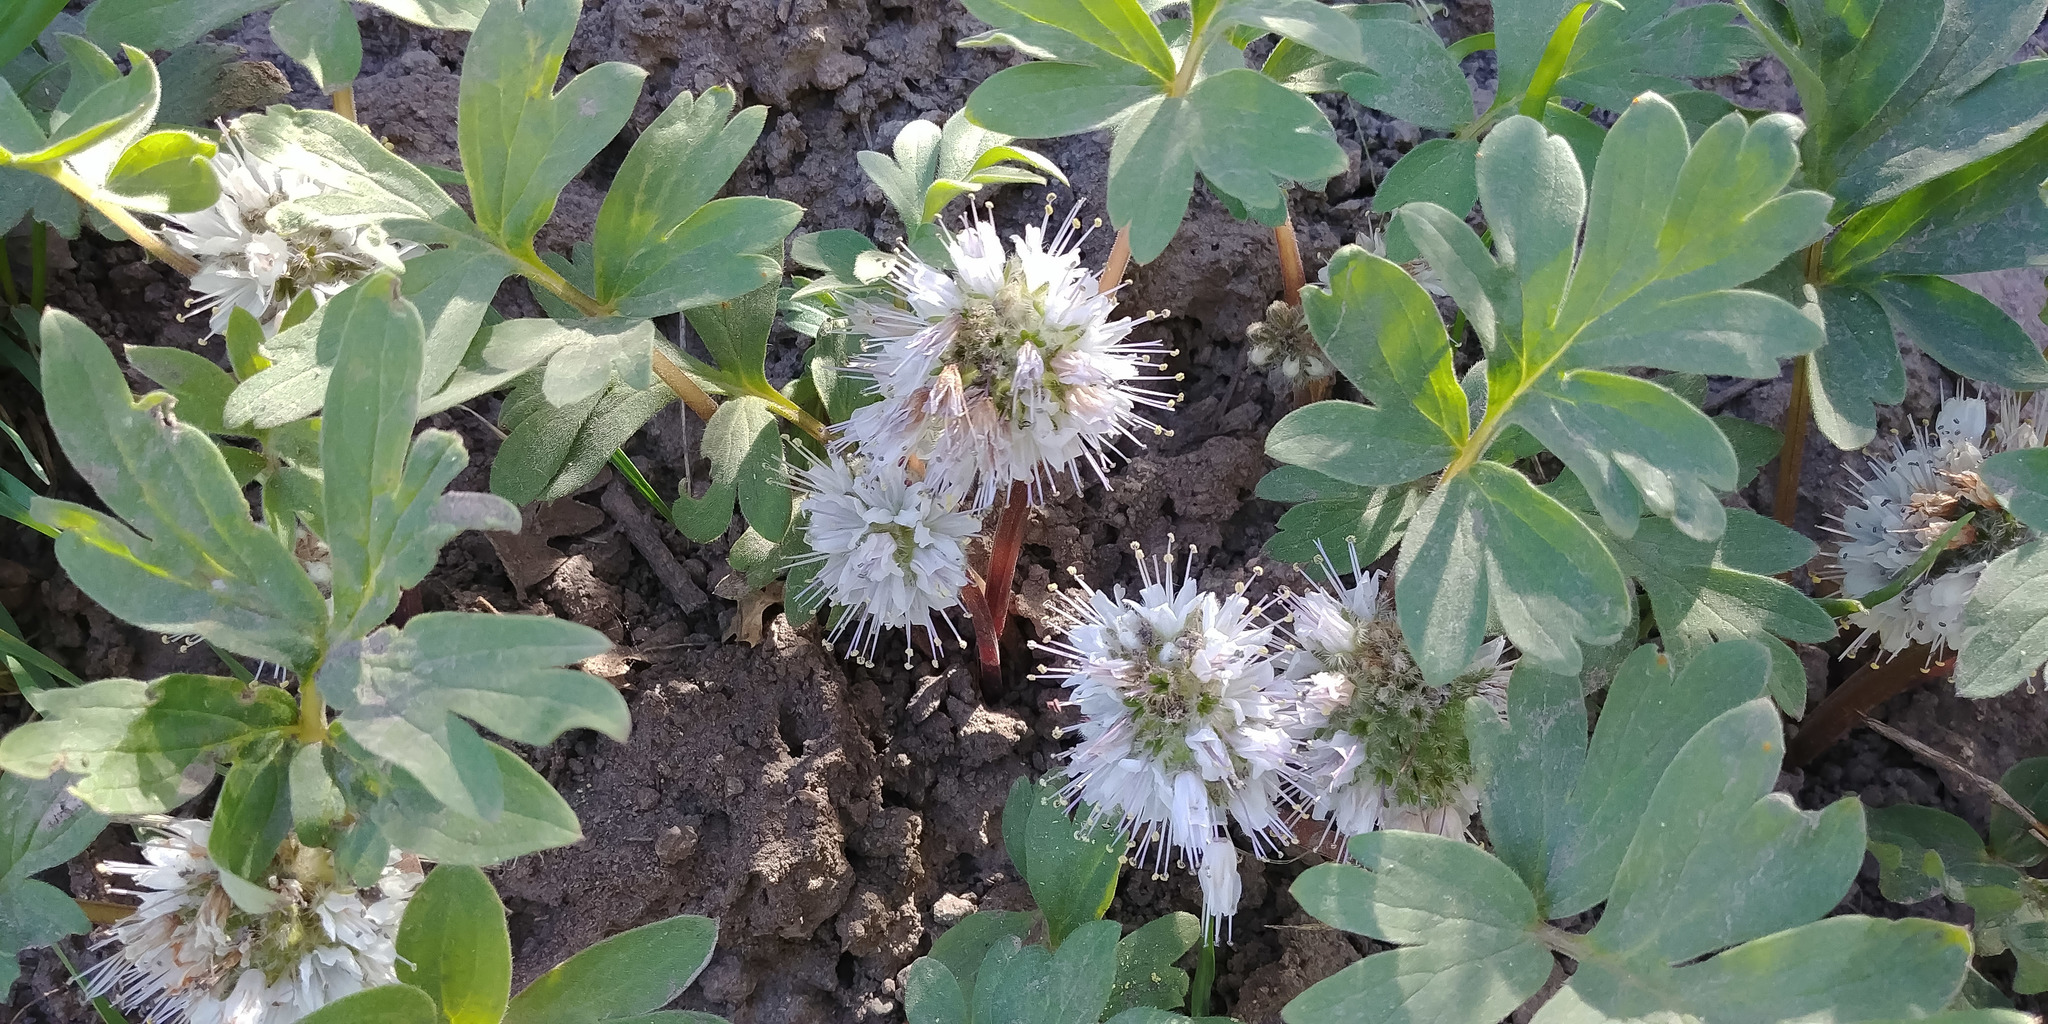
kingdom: Plantae
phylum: Tracheophyta
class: Magnoliopsida
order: Boraginales
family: Hydrophyllaceae
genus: Hydrophyllum
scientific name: Hydrophyllum occidentale
